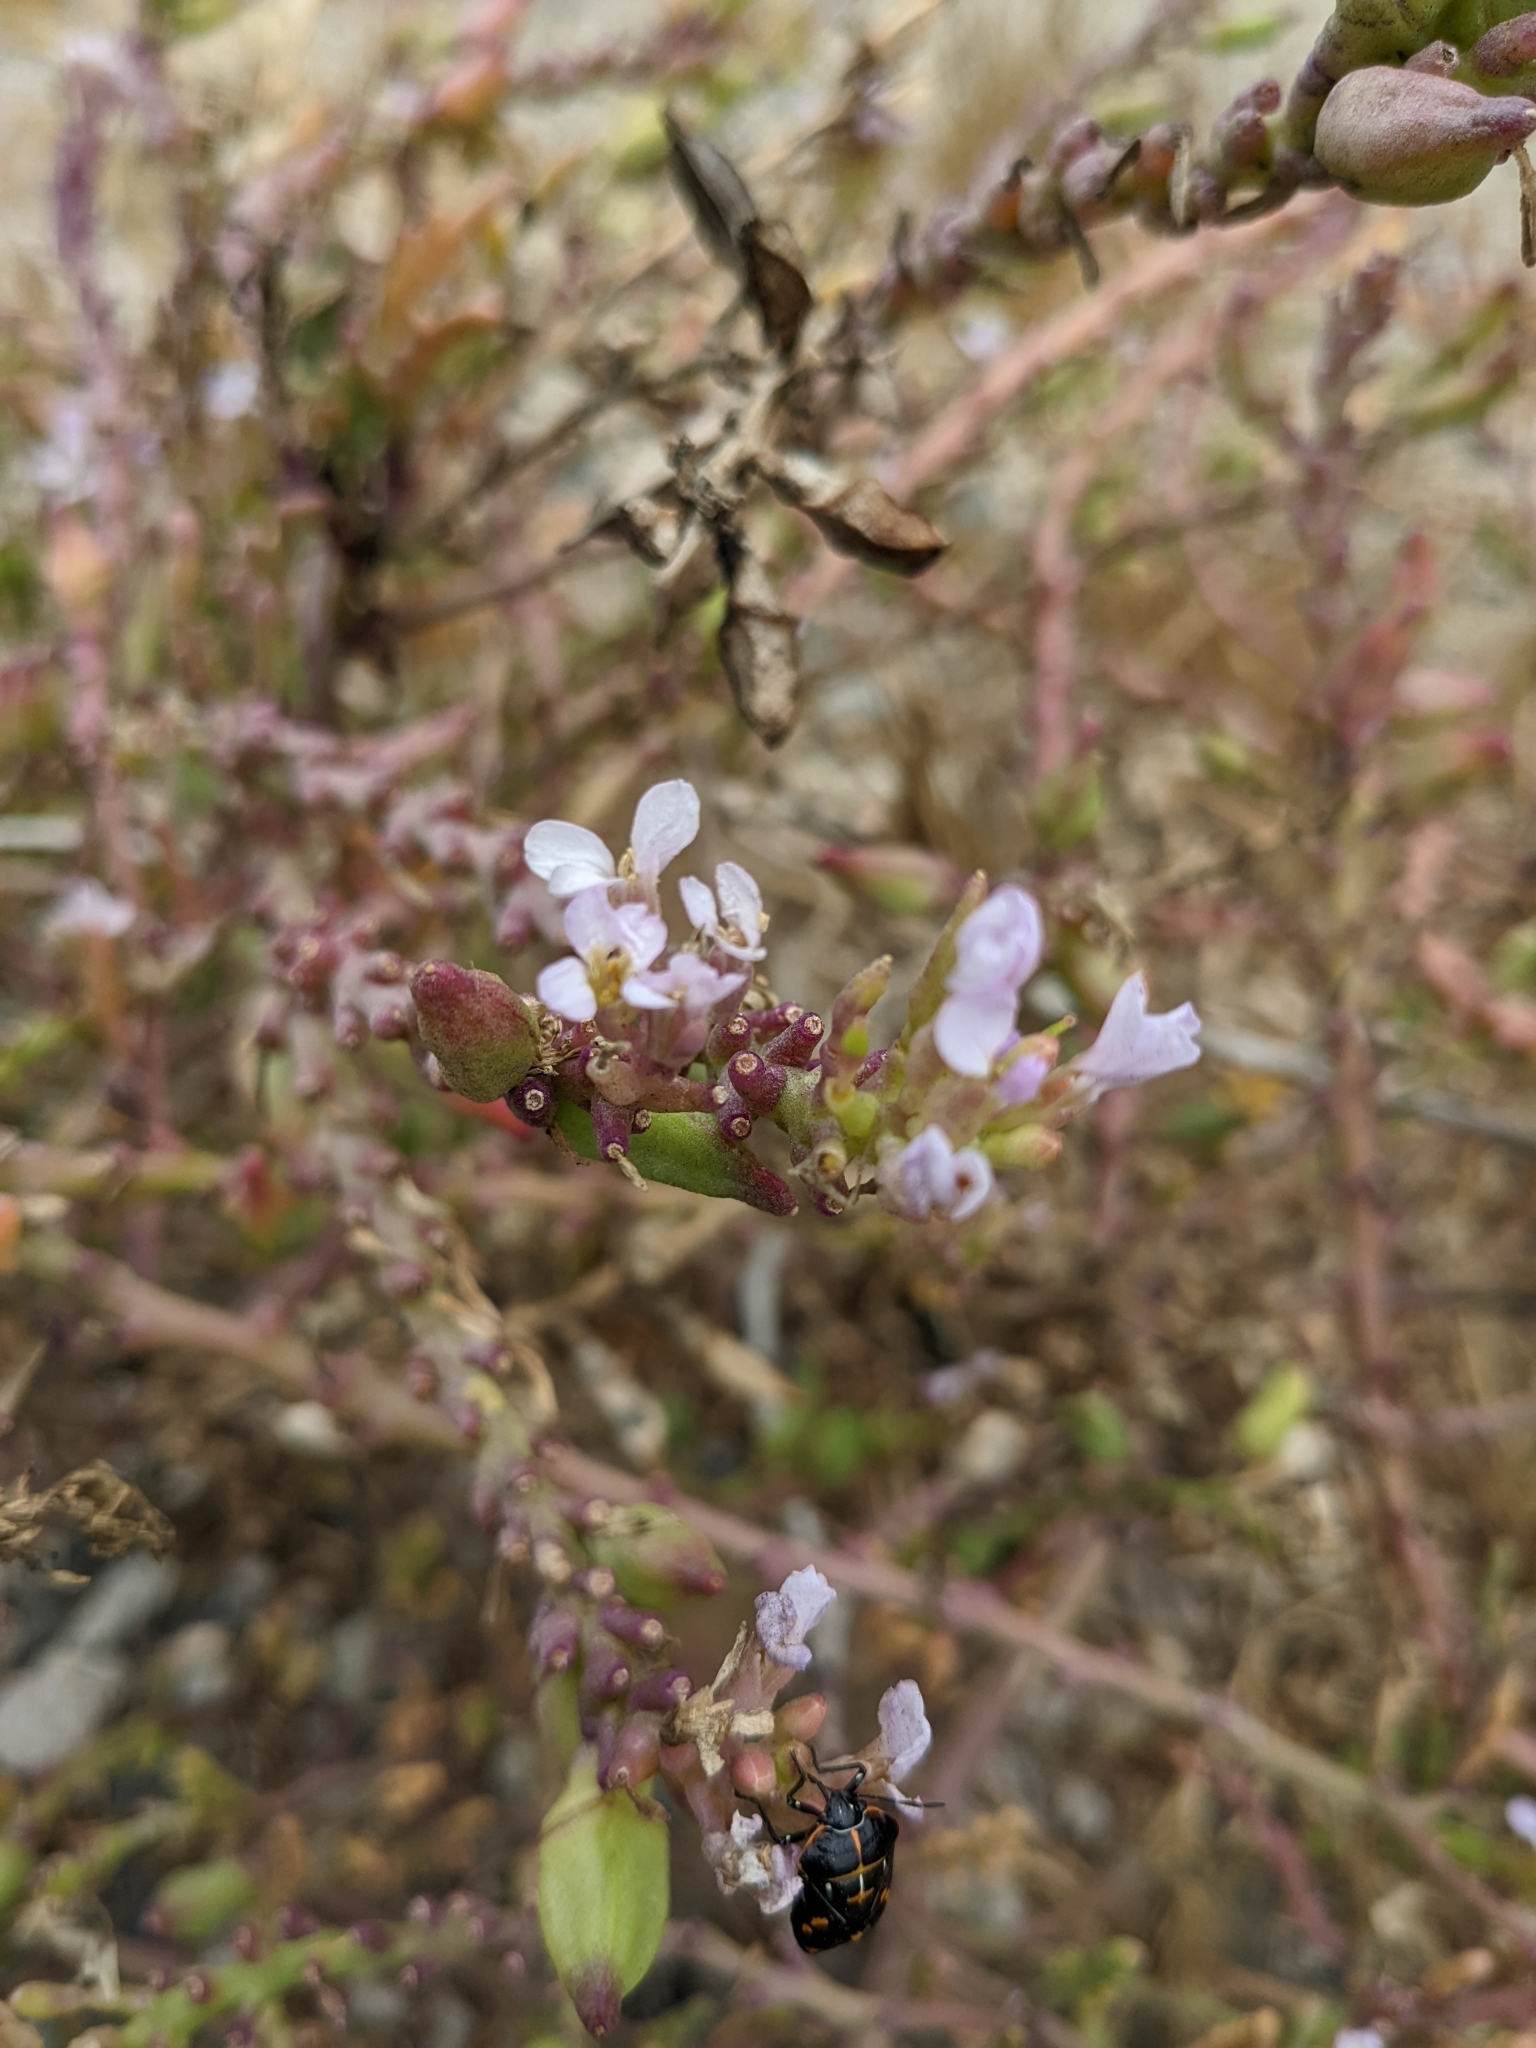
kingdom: Plantae
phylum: Tracheophyta
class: Magnoliopsida
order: Brassicales
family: Brassicaceae
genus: Cakile
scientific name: Cakile maritima
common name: Sea rocket
